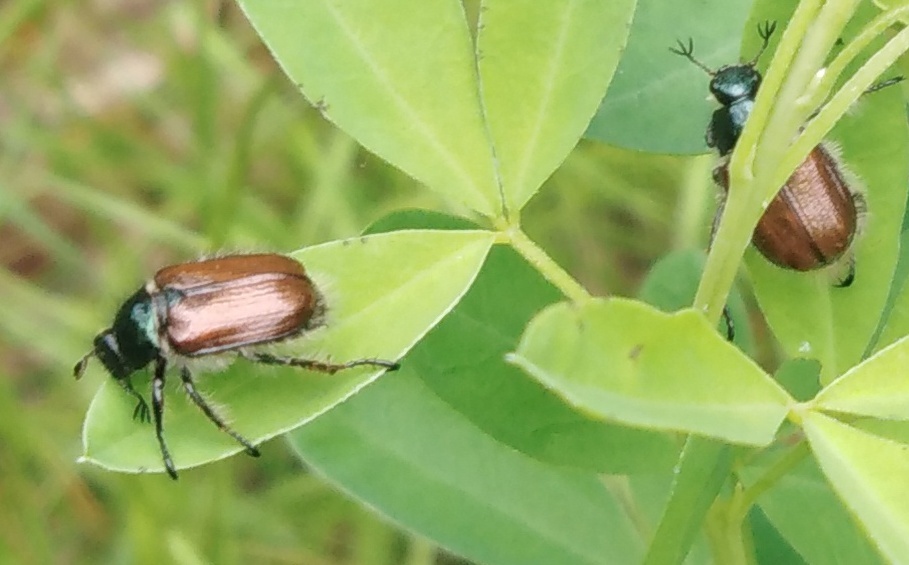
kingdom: Animalia
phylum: Arthropoda
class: Insecta
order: Coleoptera
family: Scarabaeidae
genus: Phyllopertha
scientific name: Phyllopertha horticola
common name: Garden chafer
